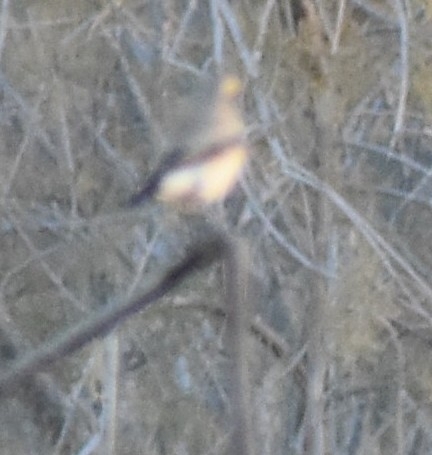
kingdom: Animalia
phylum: Chordata
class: Aves
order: Passeriformes
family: Muscicapidae
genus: Oenanthe
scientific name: Oenanthe oenanthe
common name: Northern wheatear
